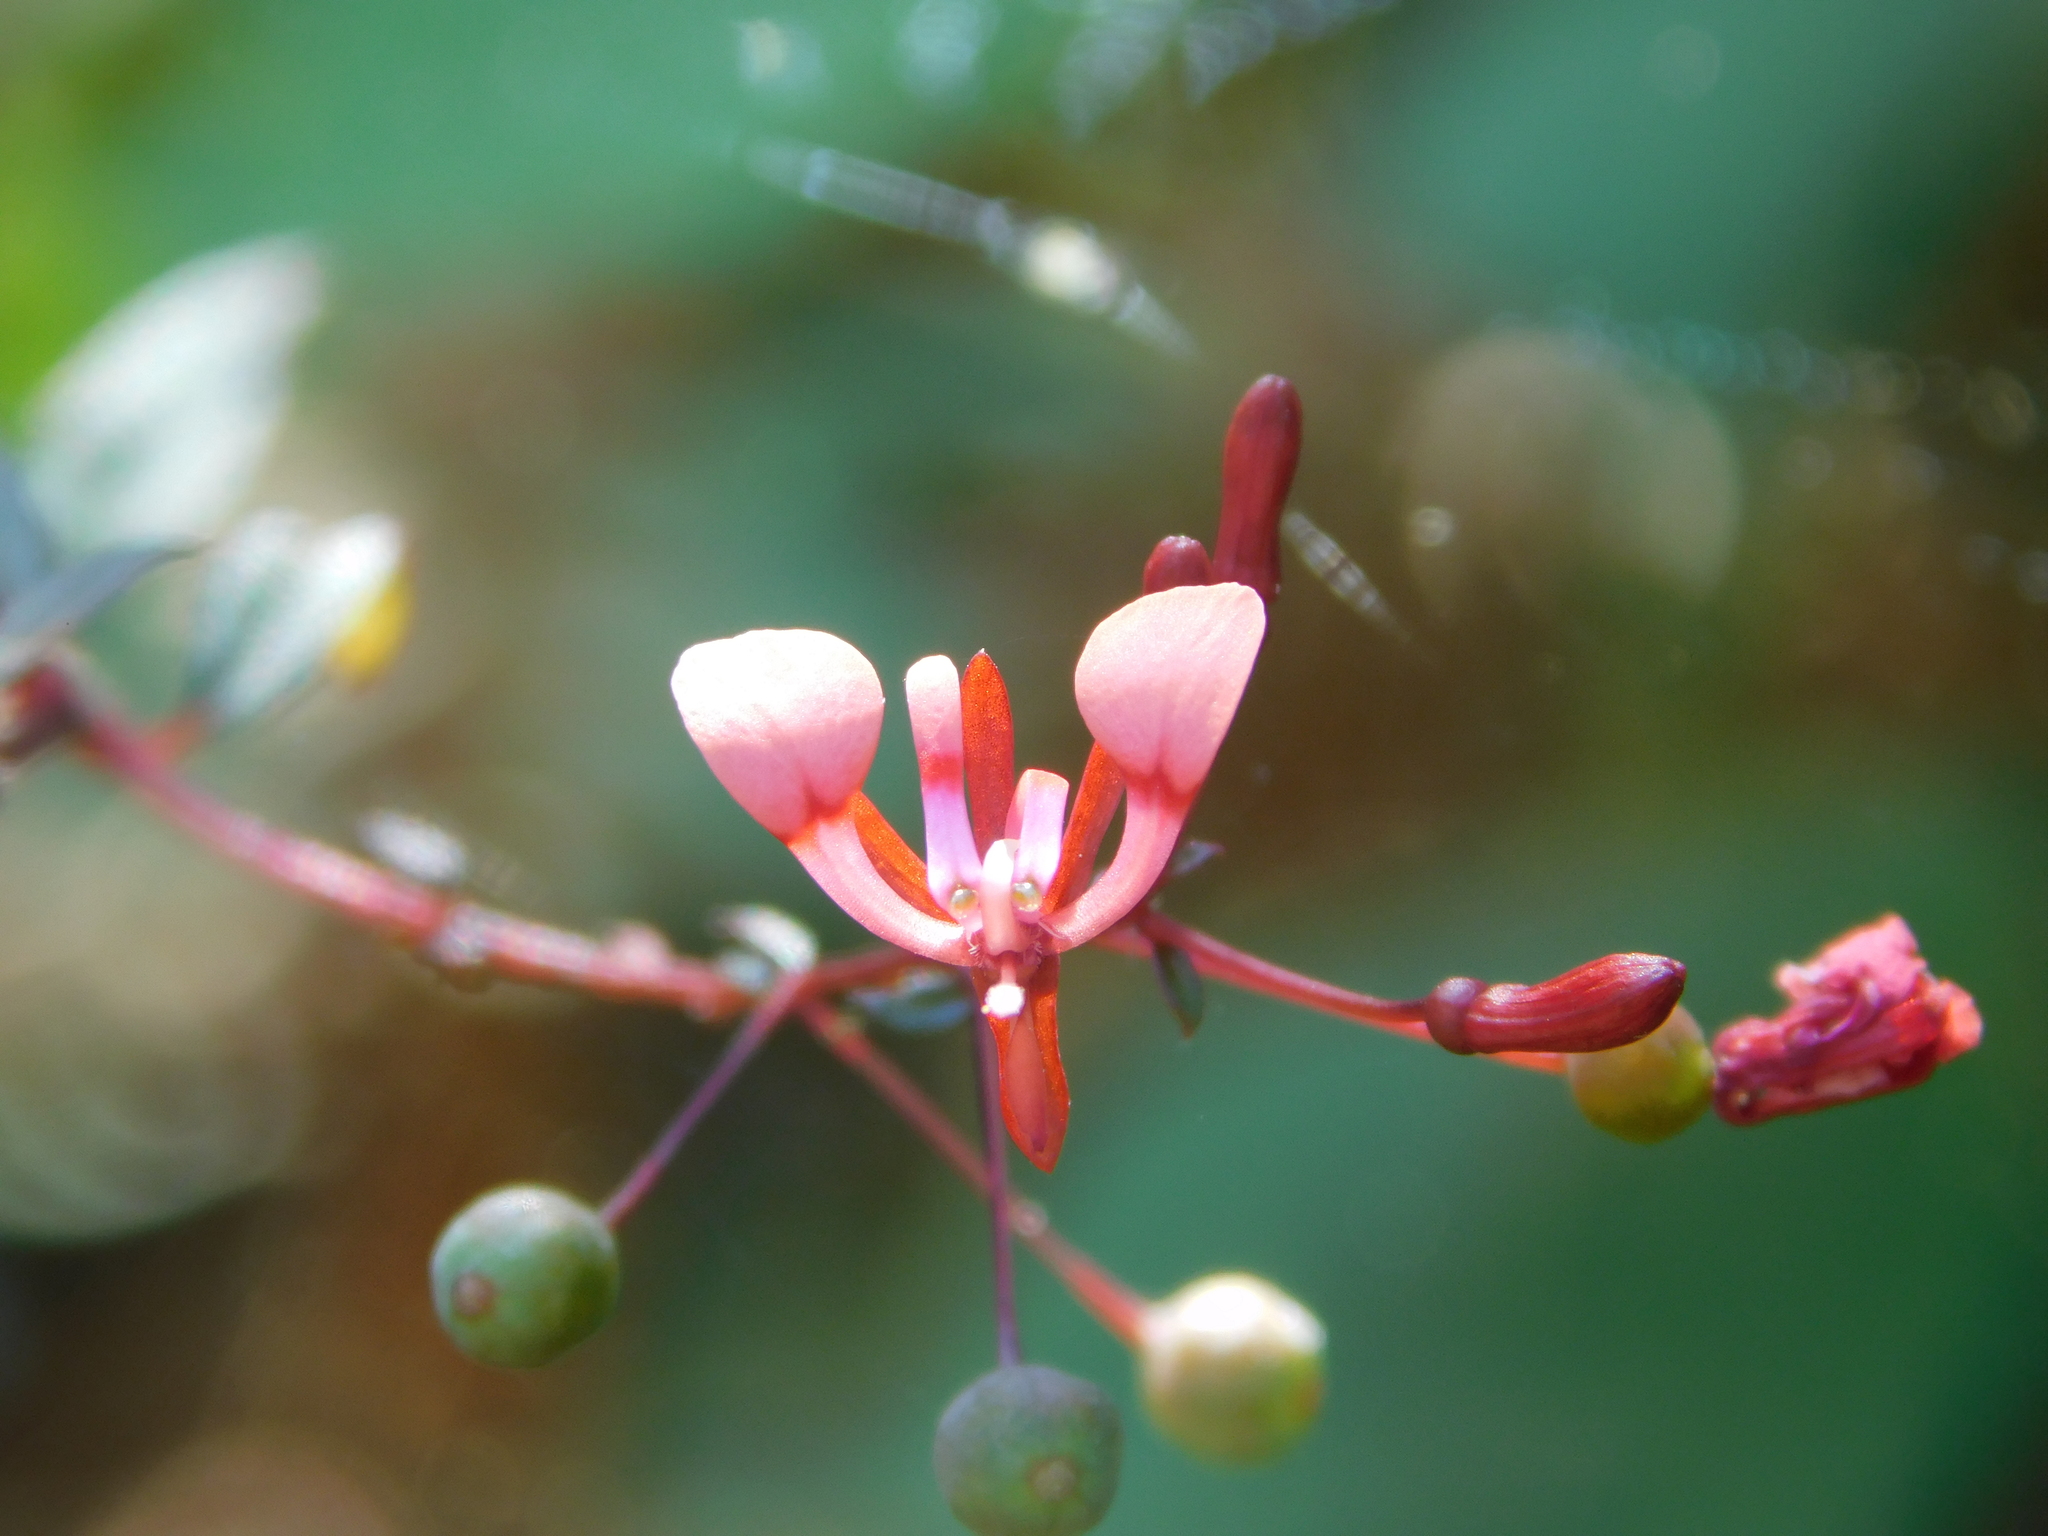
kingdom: Plantae
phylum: Tracheophyta
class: Magnoliopsida
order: Myrtales
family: Onagraceae
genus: Lopezia
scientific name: Lopezia racemosa
